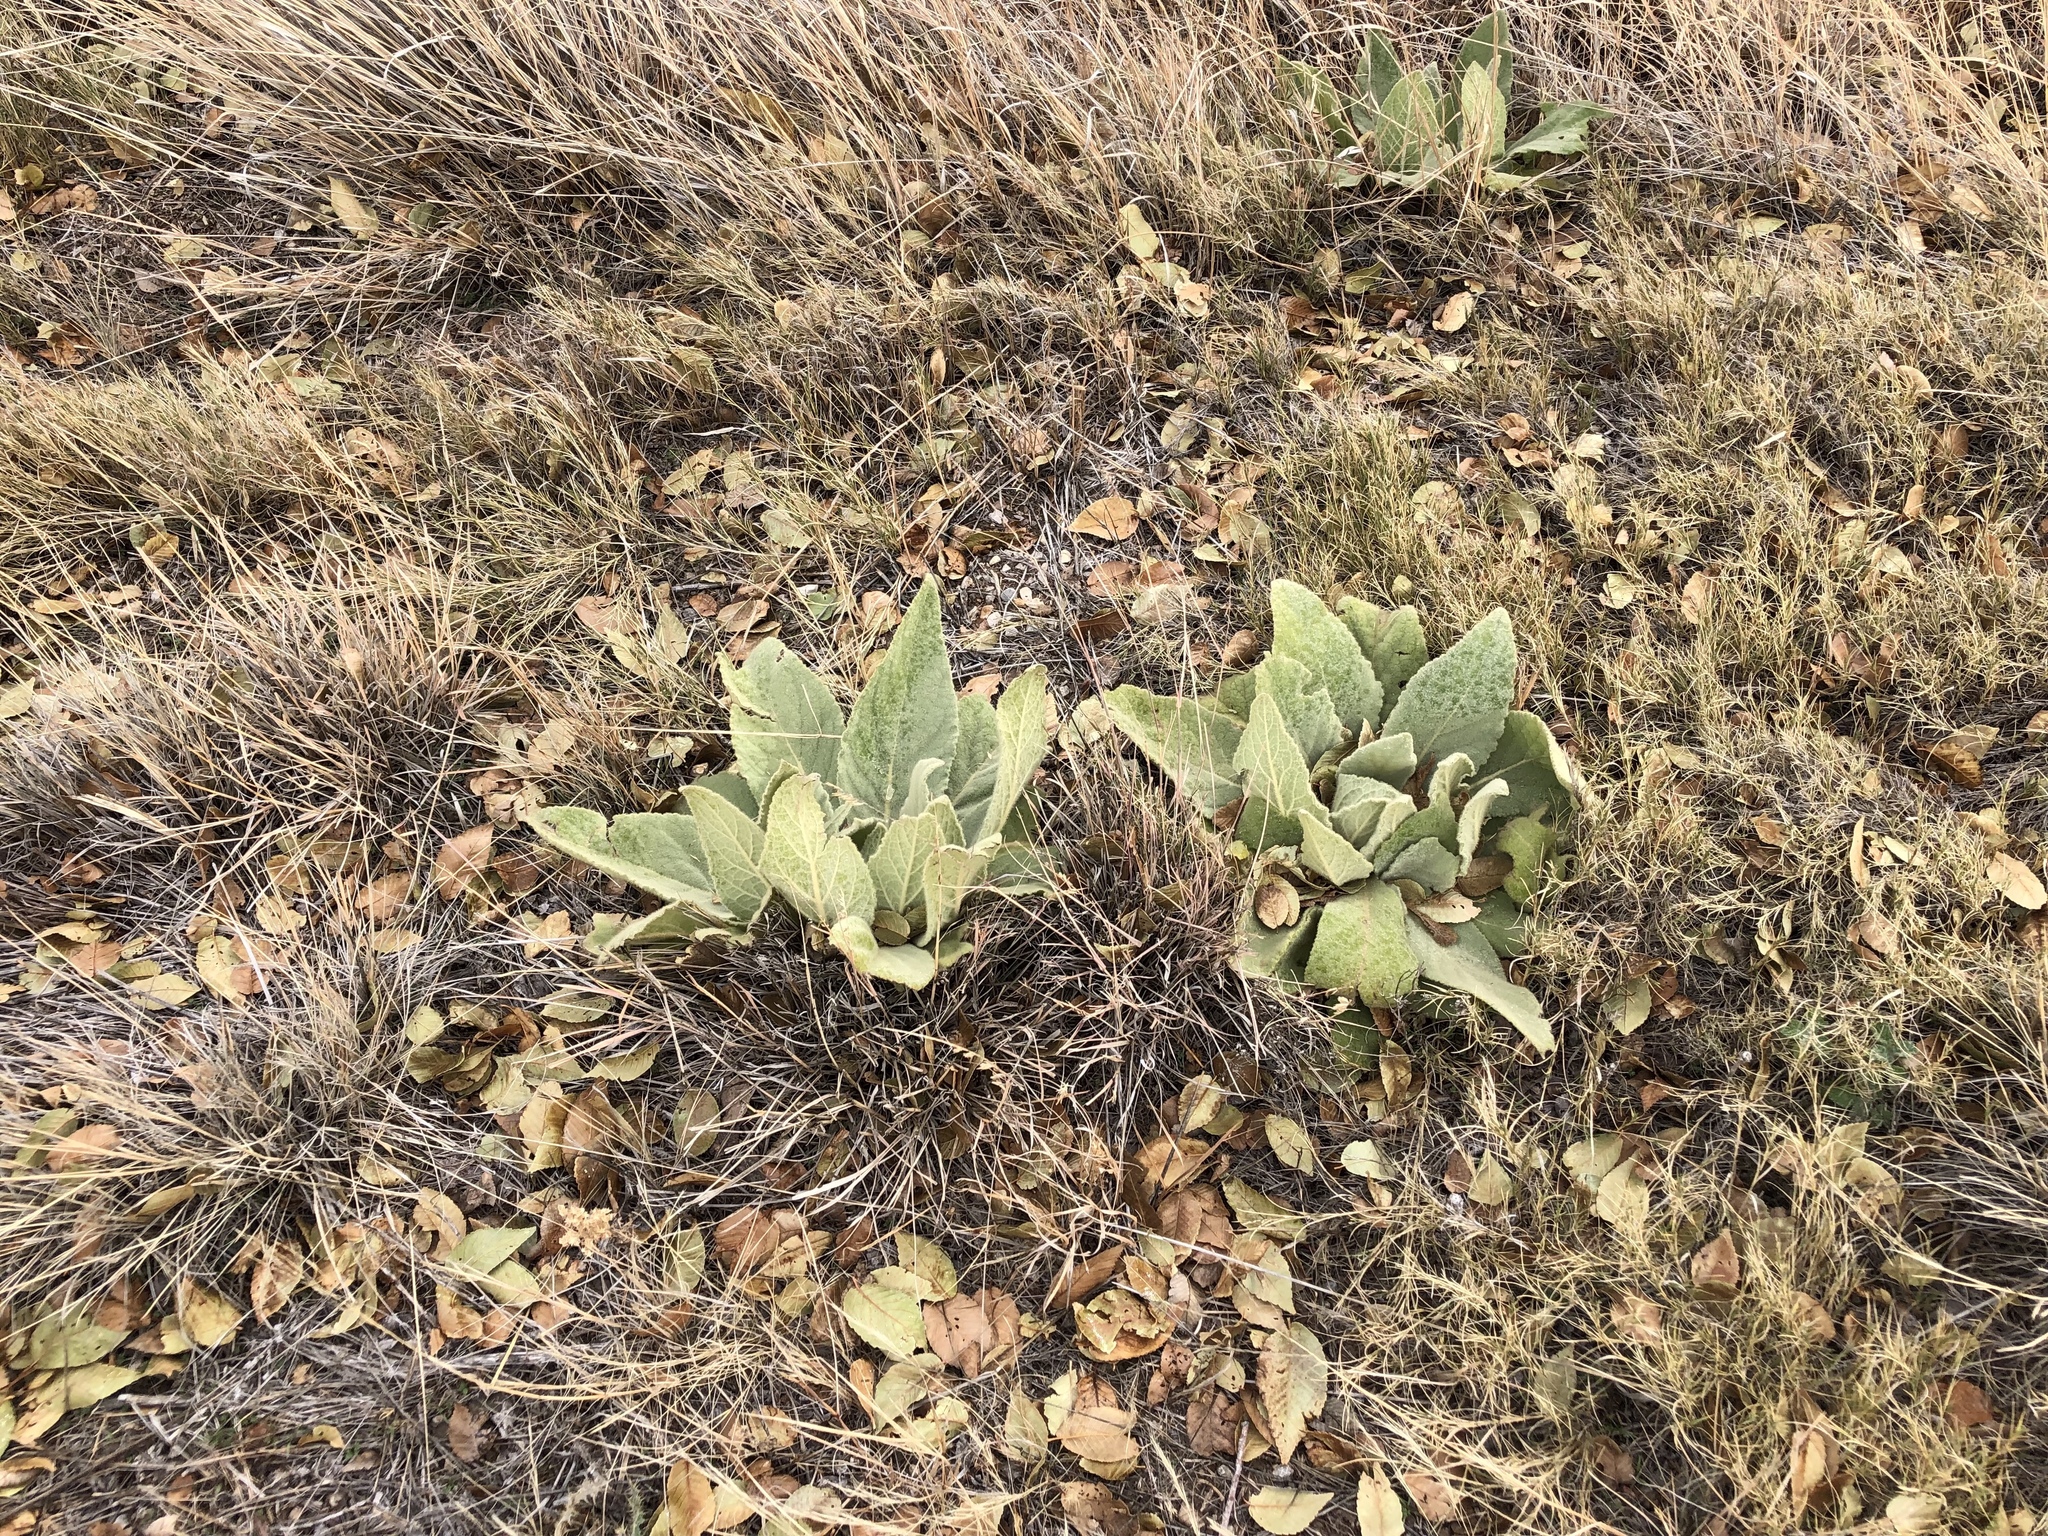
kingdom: Plantae
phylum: Tracheophyta
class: Magnoliopsida
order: Lamiales
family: Scrophulariaceae
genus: Verbascum
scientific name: Verbascum thapsus
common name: Common mullein
